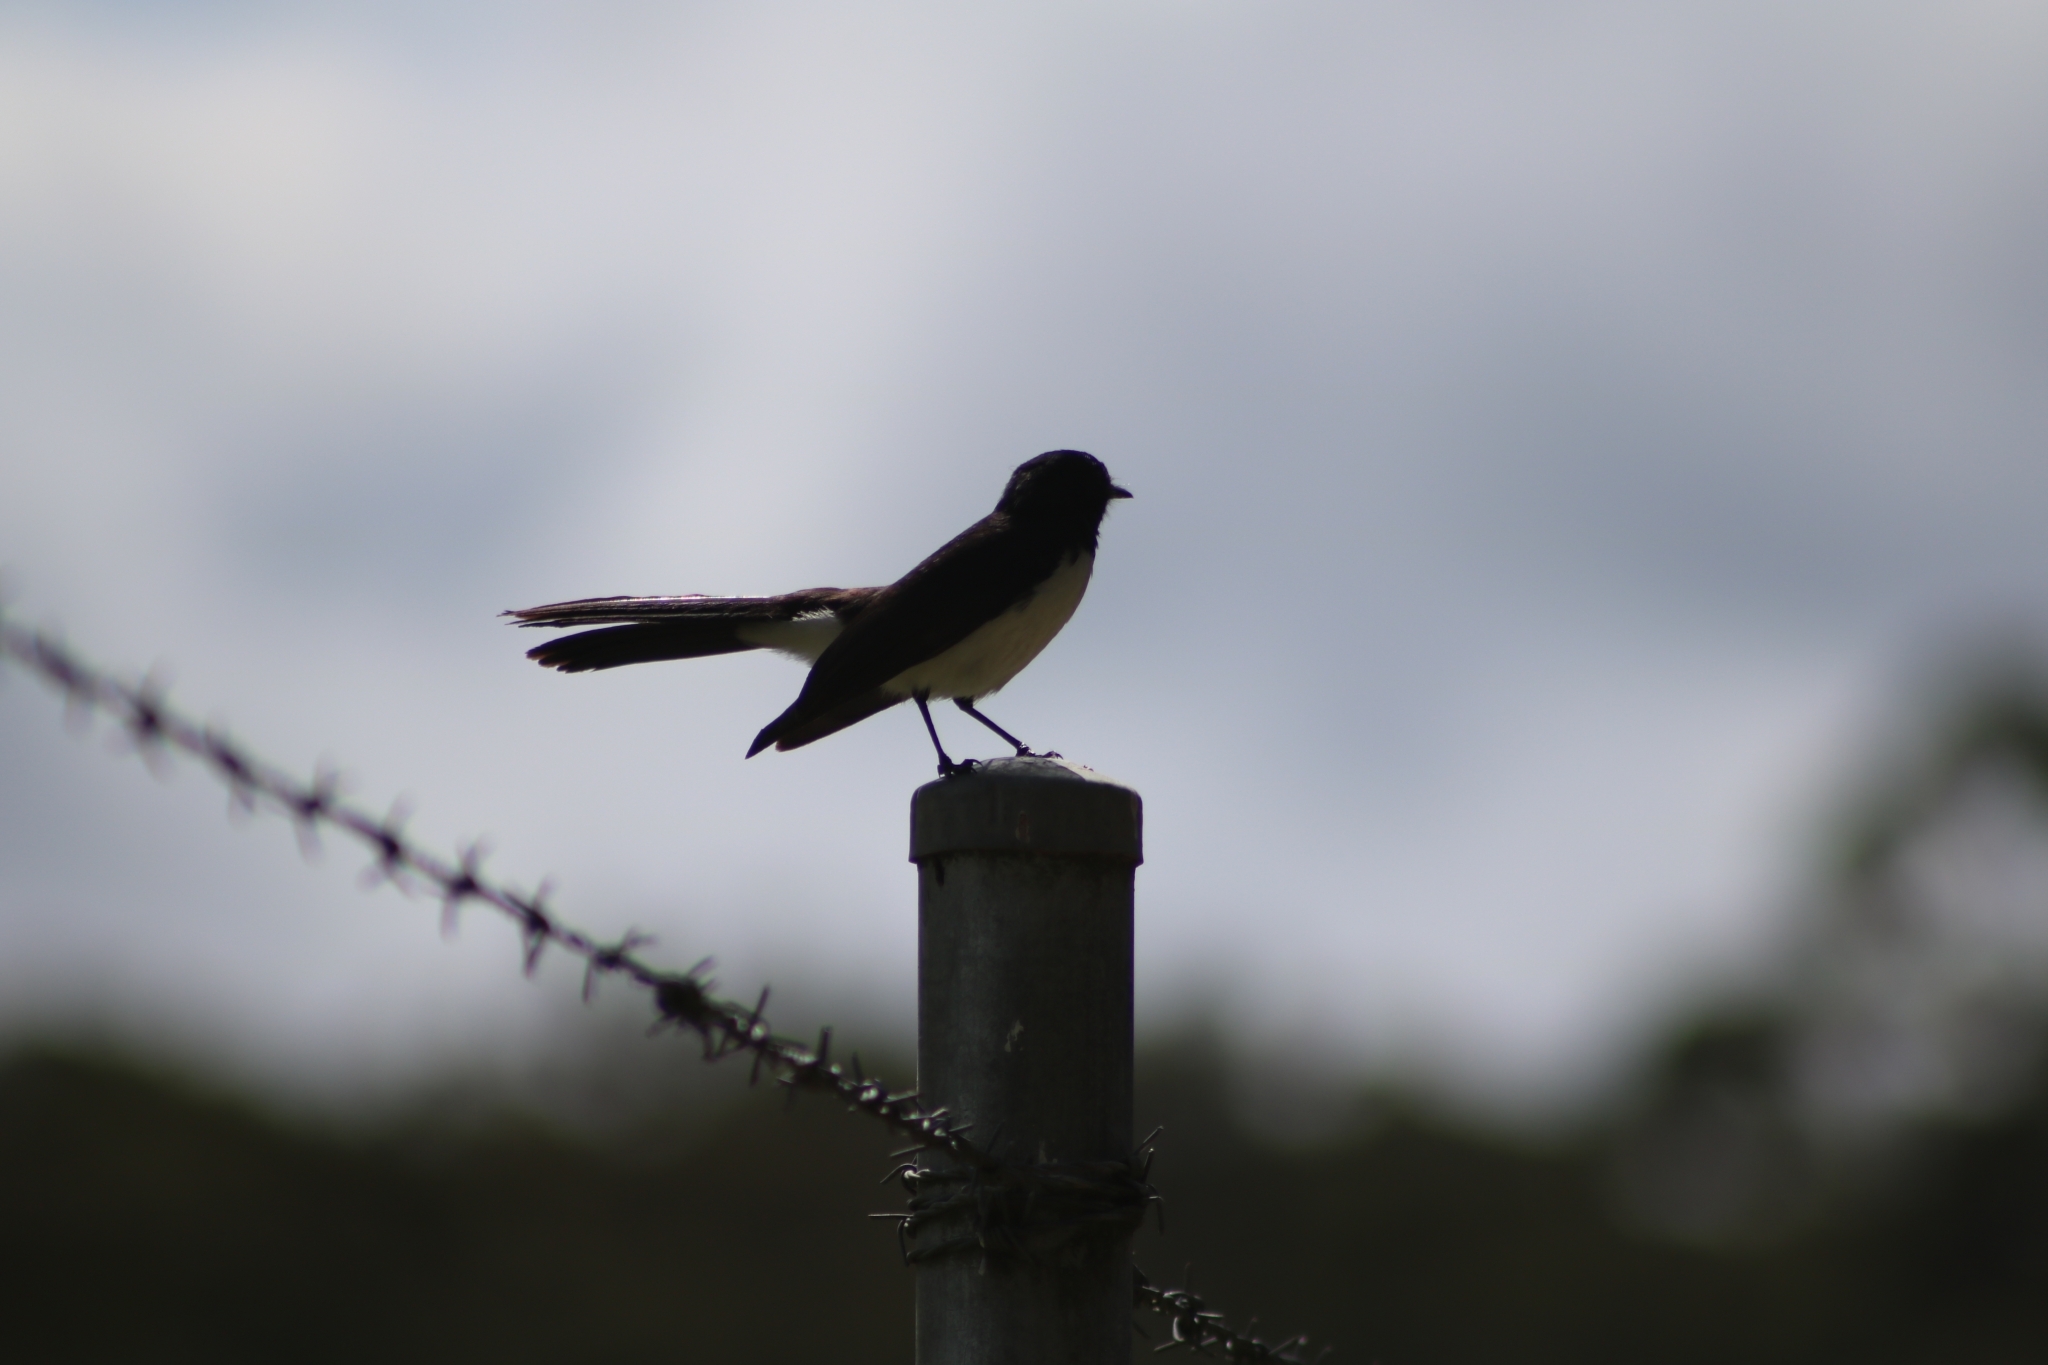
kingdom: Animalia
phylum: Chordata
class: Aves
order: Passeriformes
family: Rhipiduridae
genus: Rhipidura
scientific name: Rhipidura leucophrys
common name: Willie wagtail
